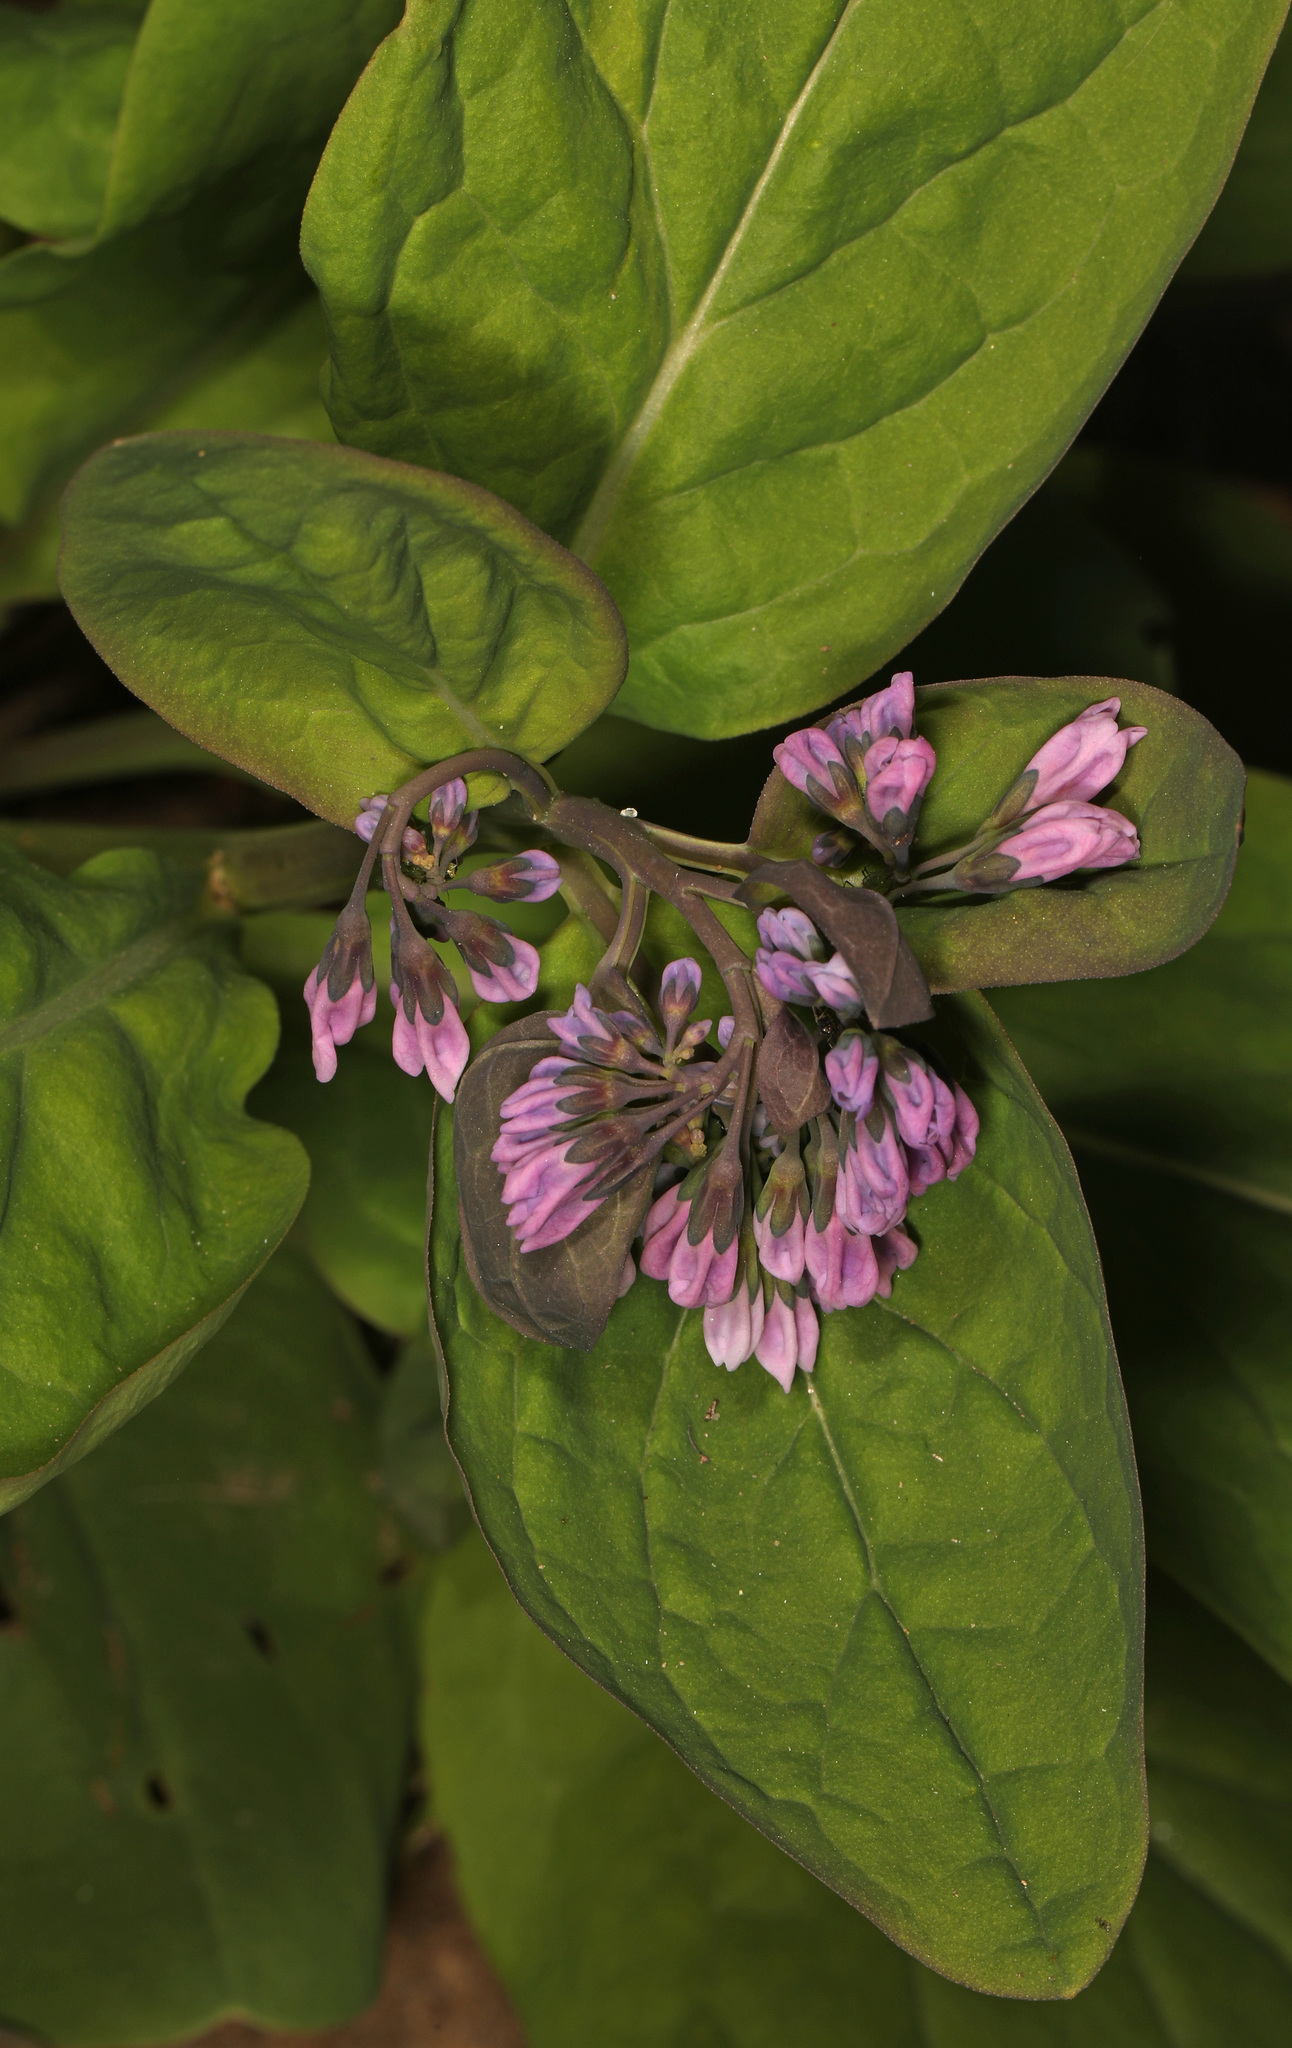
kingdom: Plantae
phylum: Tracheophyta
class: Magnoliopsida
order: Boraginales
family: Boraginaceae
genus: Mertensia
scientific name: Mertensia virginica
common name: Virginia bluebells
